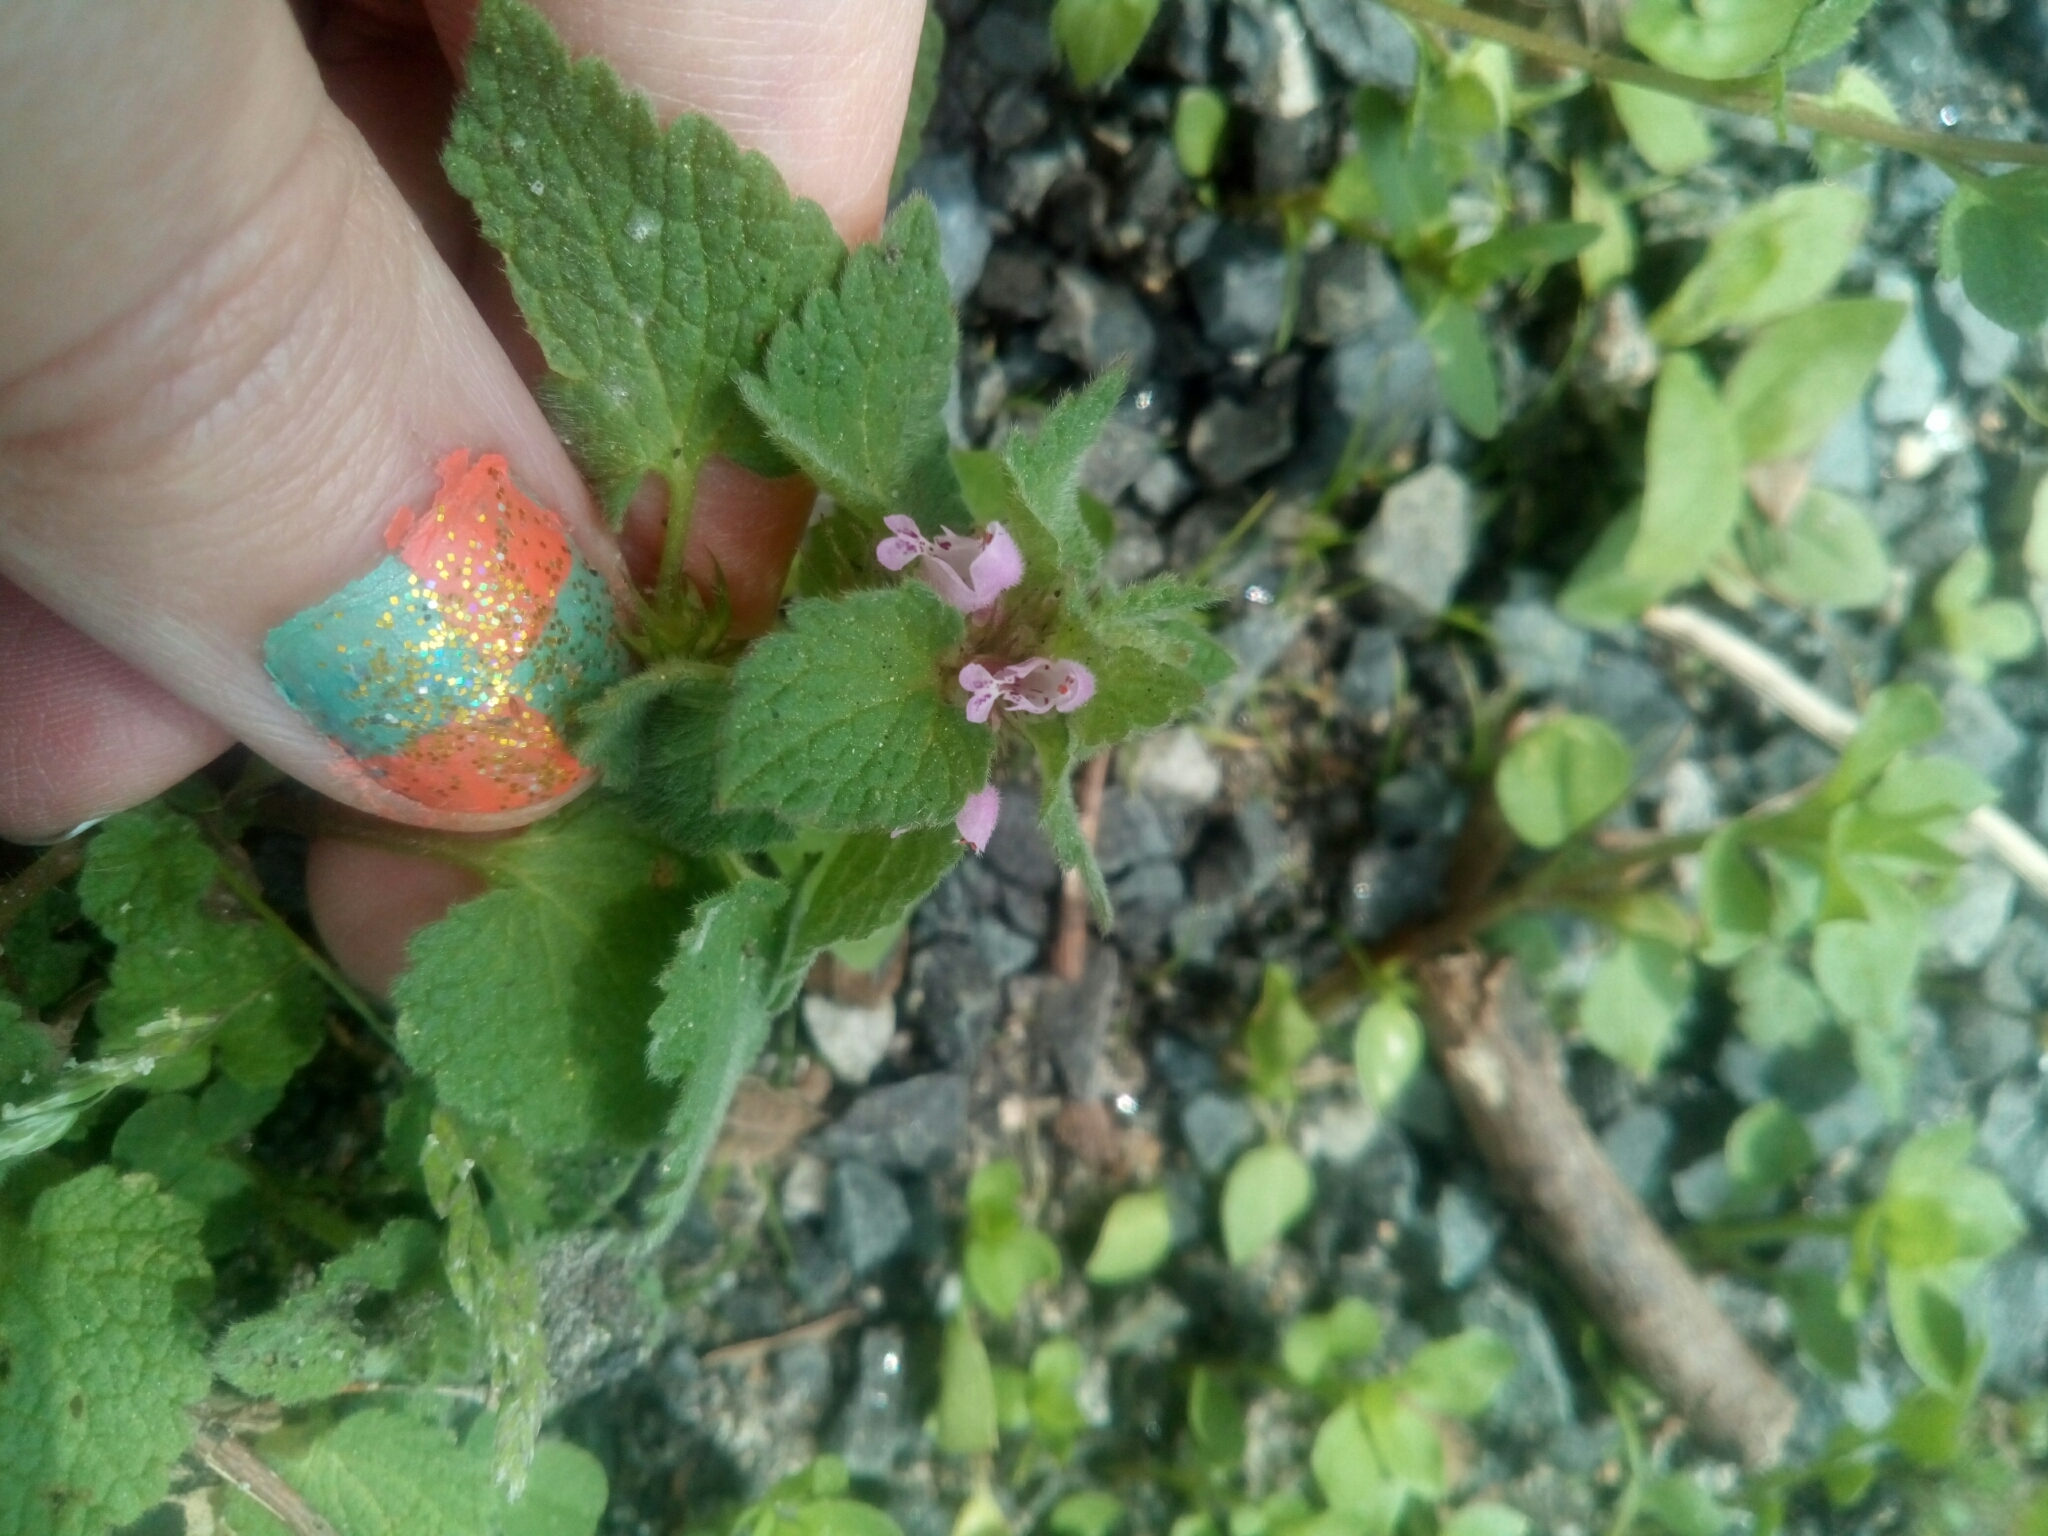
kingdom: Plantae
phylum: Tracheophyta
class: Magnoliopsida
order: Lamiales
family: Lamiaceae
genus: Lamium
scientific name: Lamium purpureum
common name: Red dead-nettle
